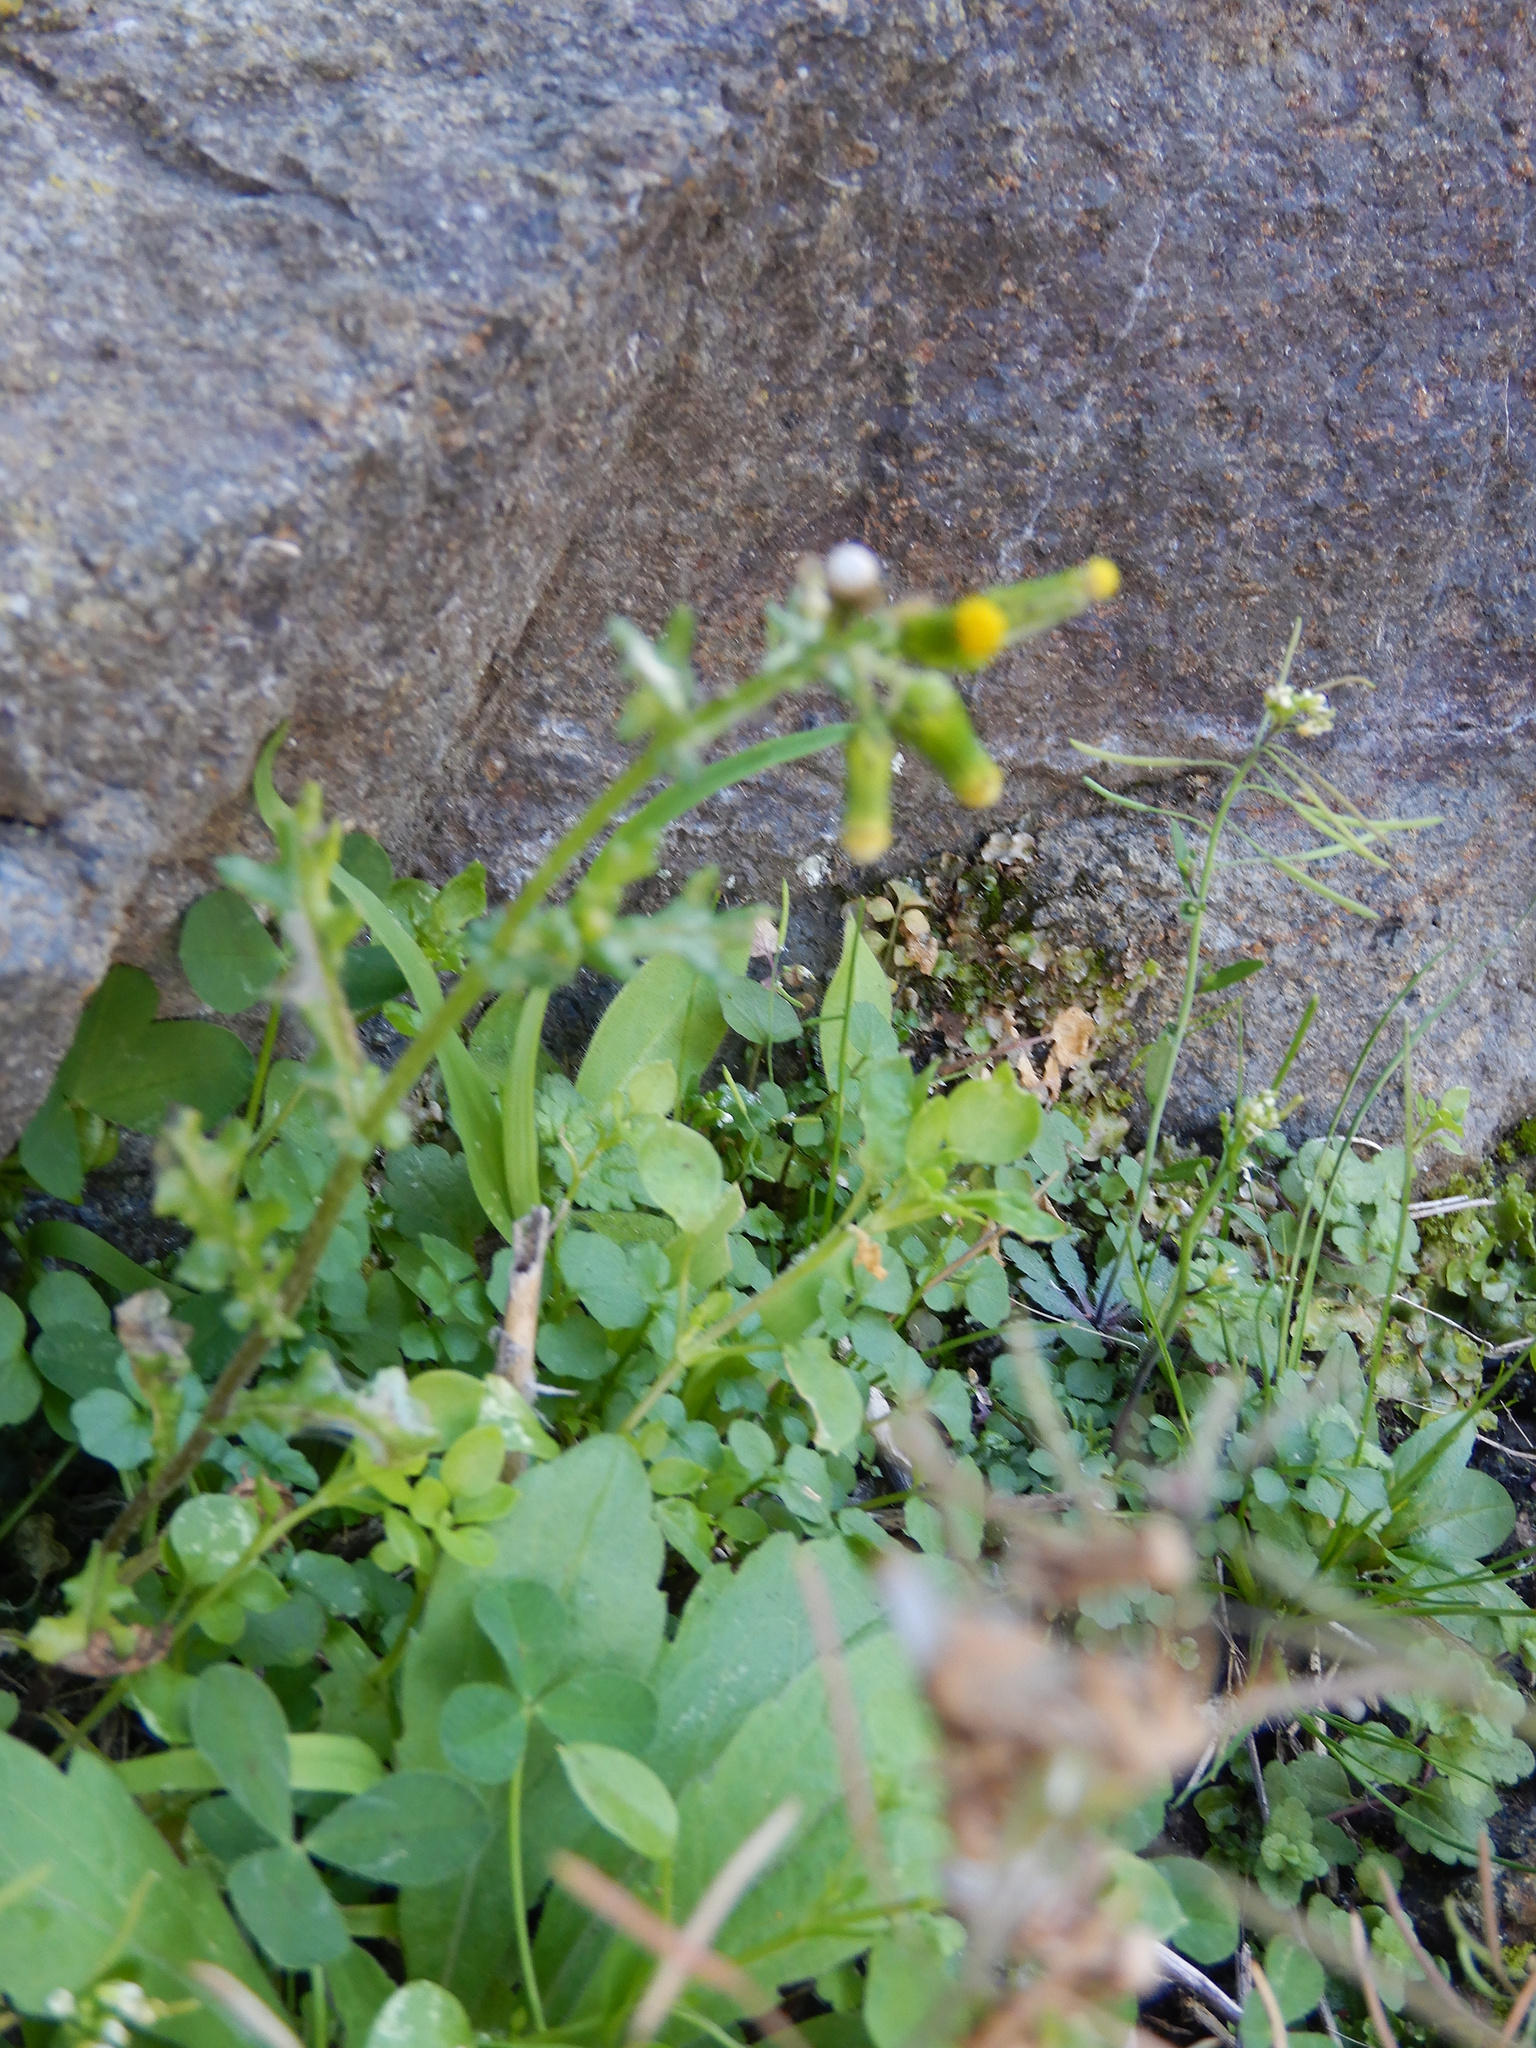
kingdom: Plantae
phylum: Tracheophyta
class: Magnoliopsida
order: Asterales
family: Asteraceae
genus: Senecio
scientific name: Senecio vulgaris
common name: Old-man-in-the-spring
